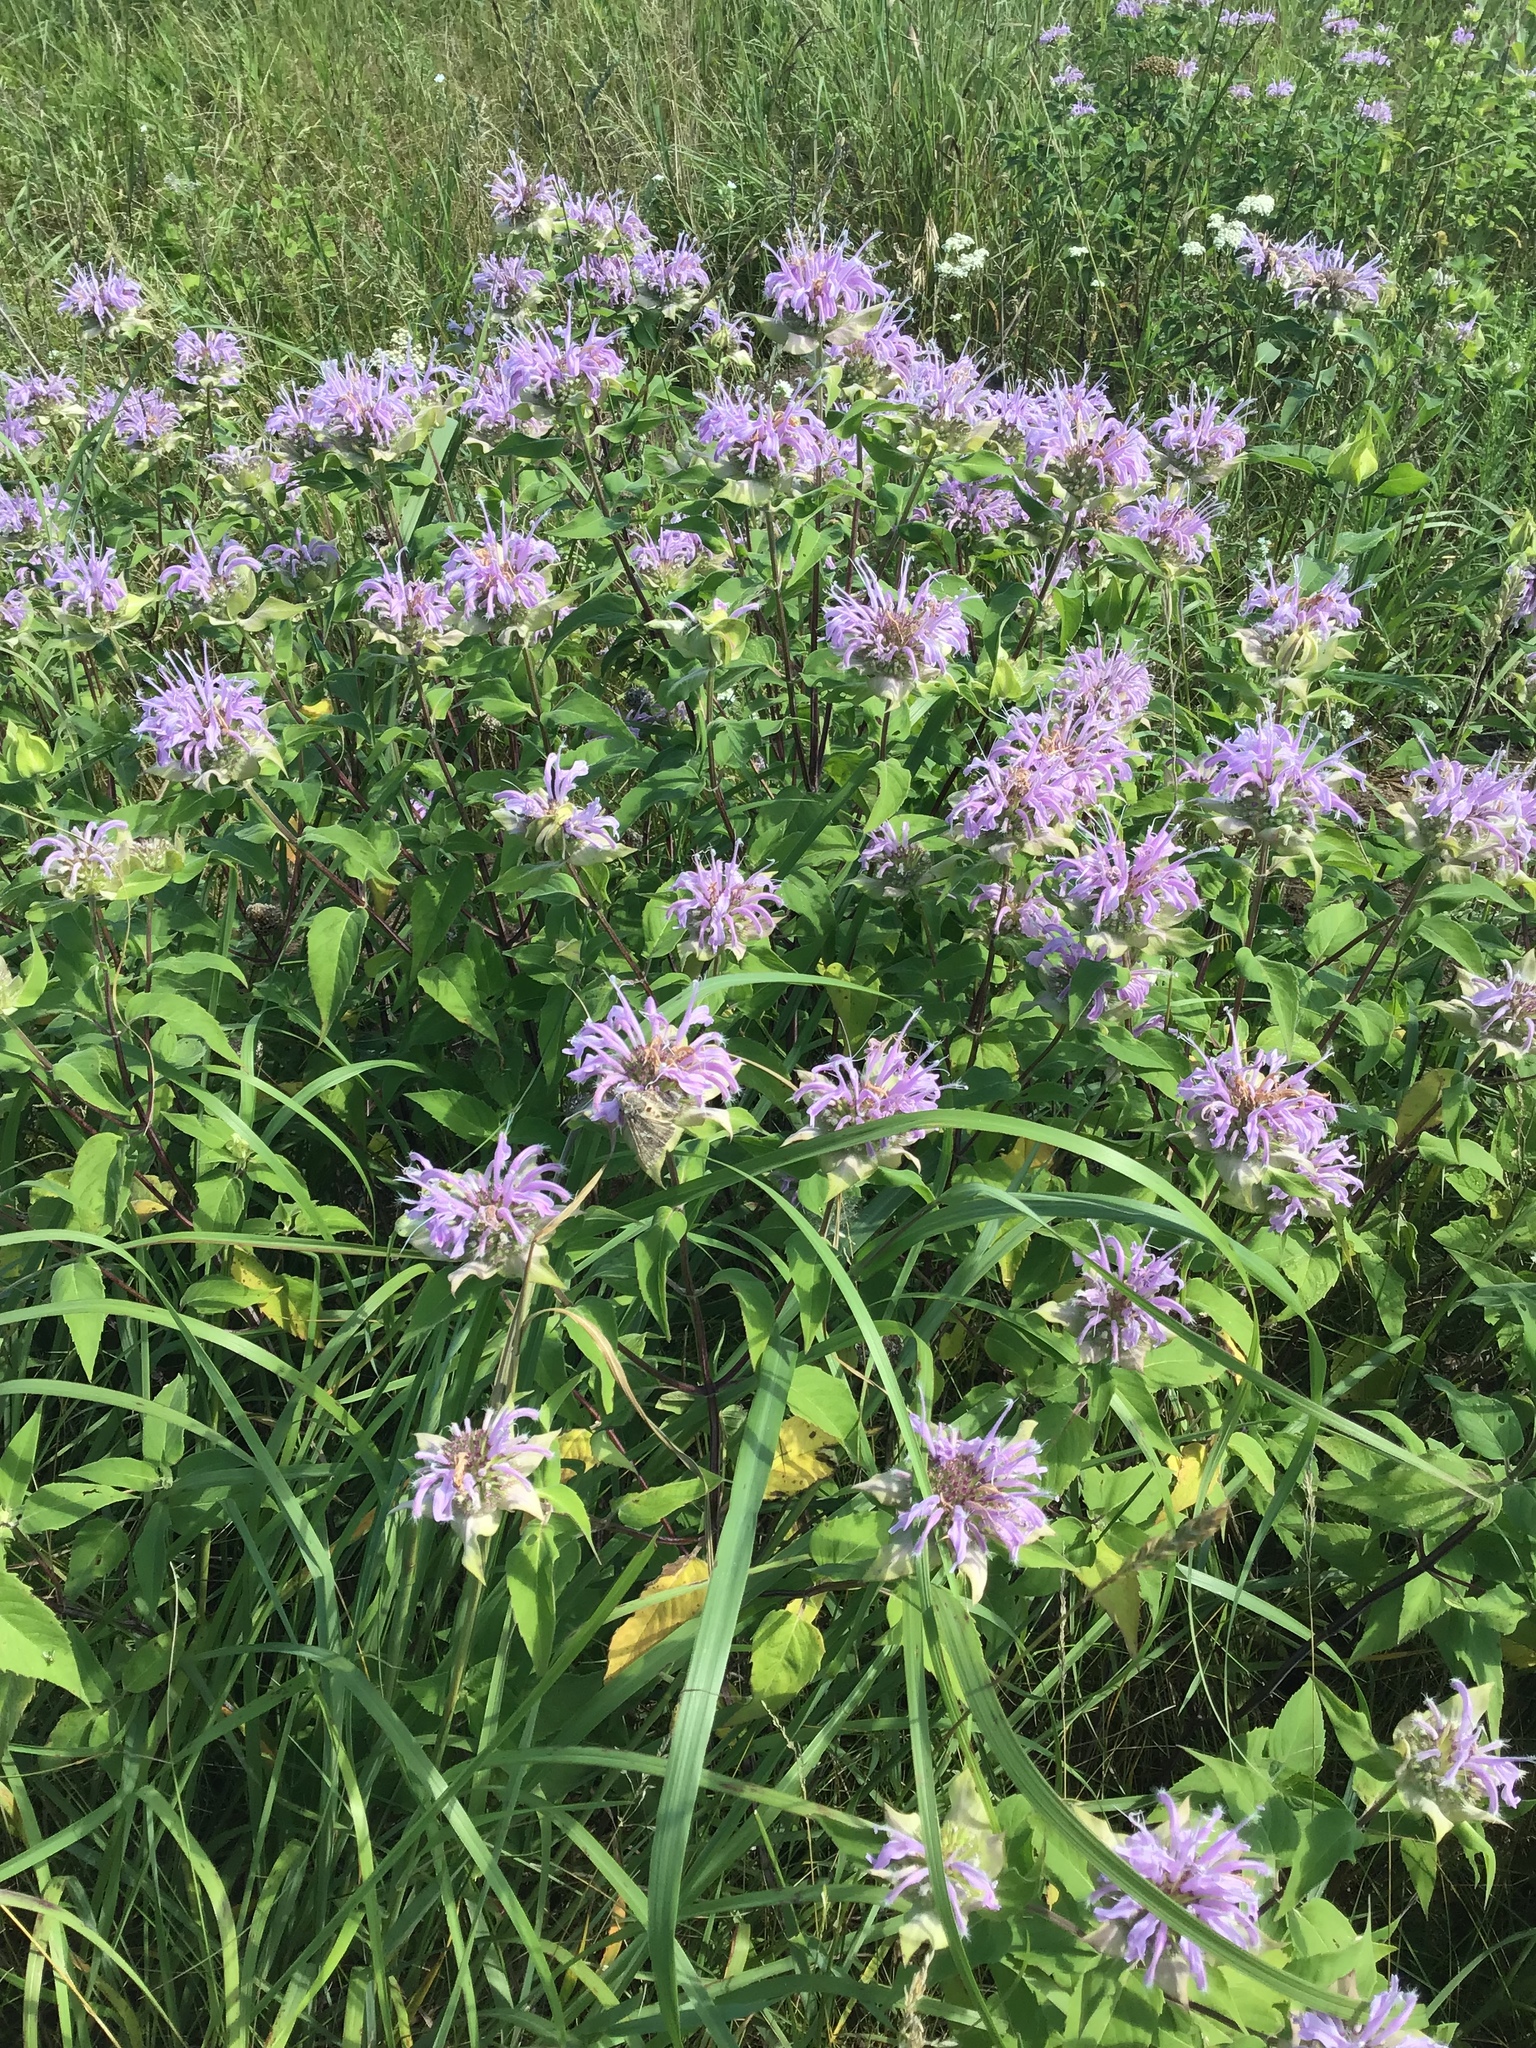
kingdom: Plantae
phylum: Tracheophyta
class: Magnoliopsida
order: Lamiales
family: Lamiaceae
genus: Monarda
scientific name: Monarda fistulosa
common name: Purple beebalm
